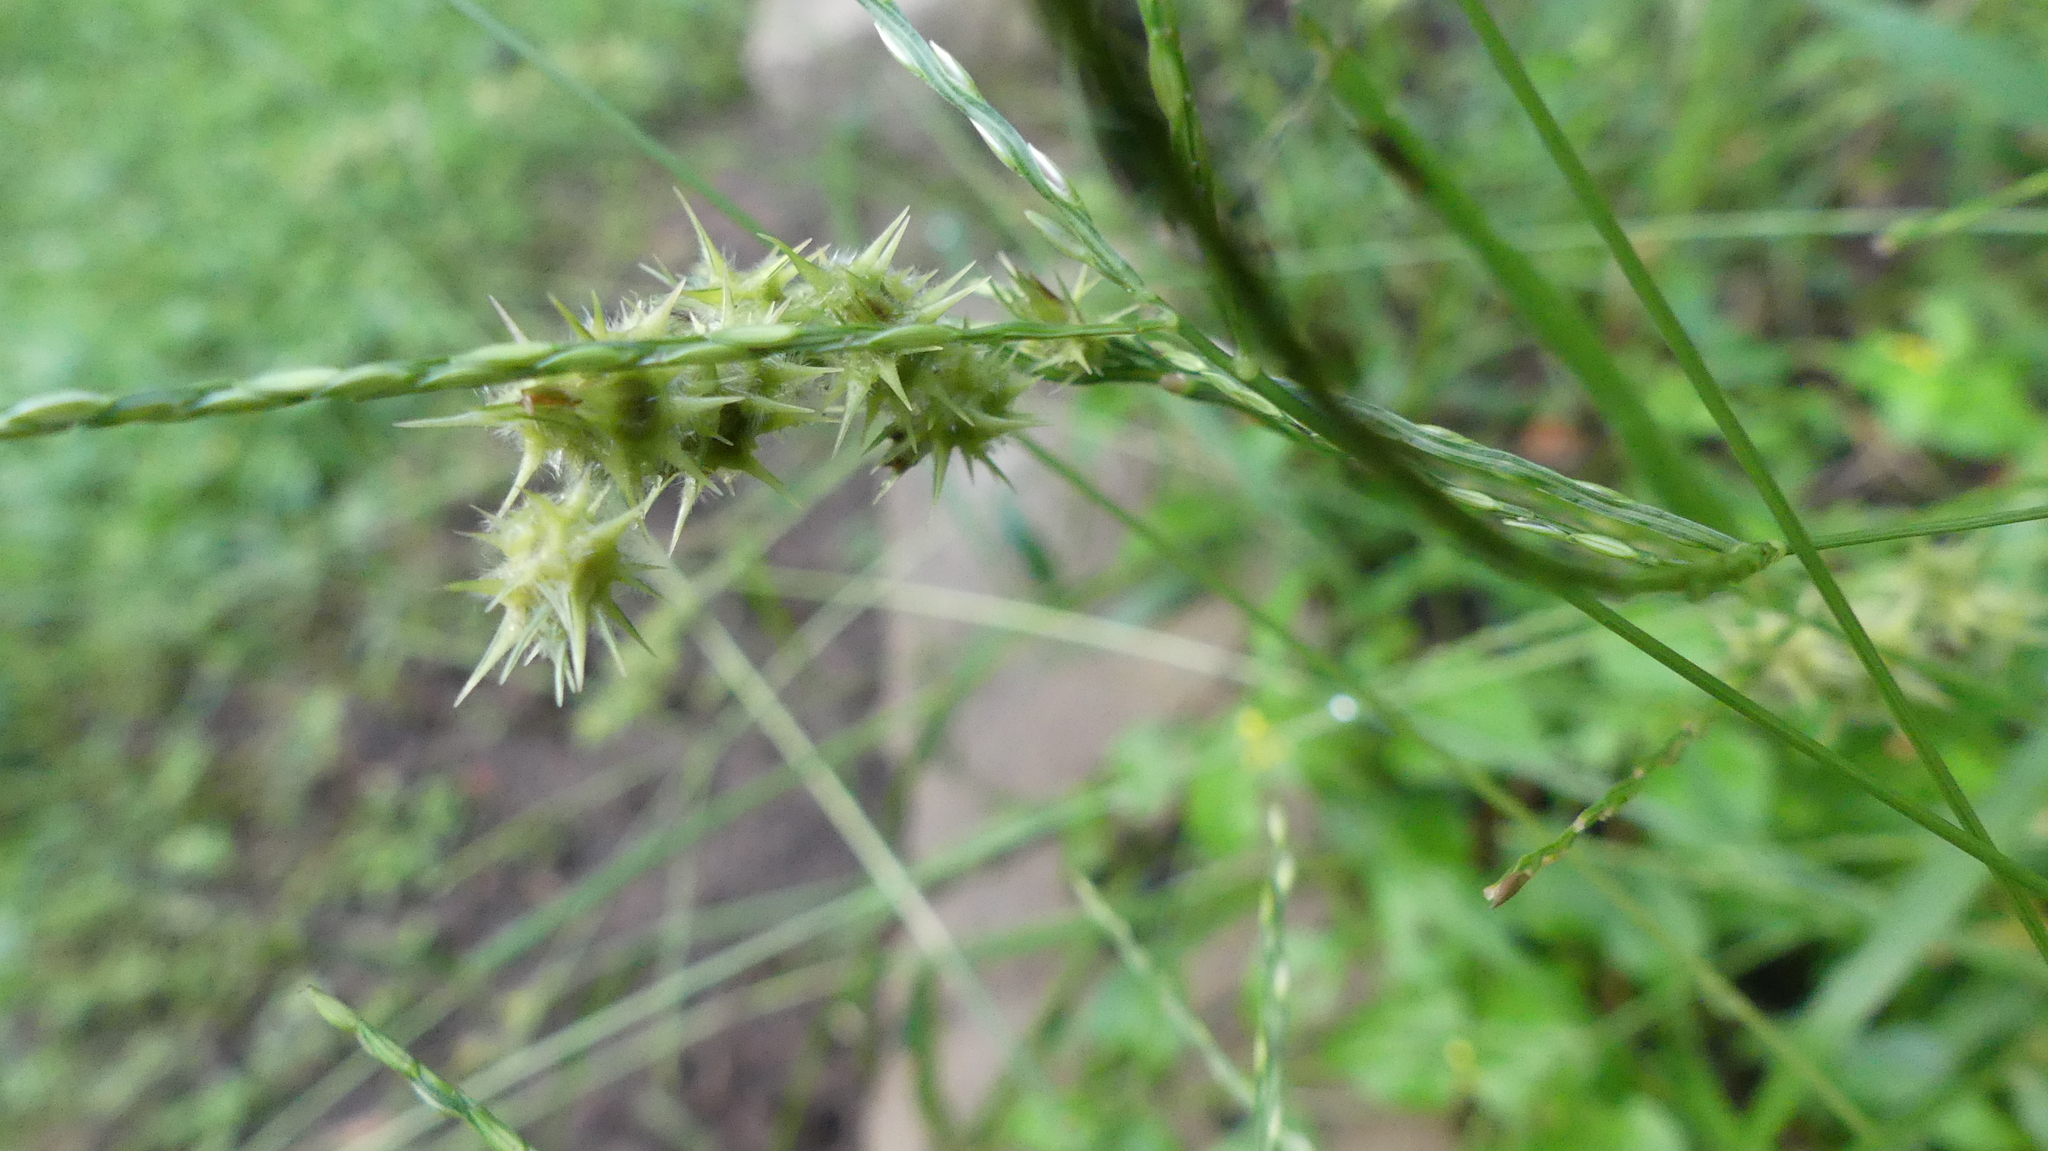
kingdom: Plantae
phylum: Tracheophyta
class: Liliopsida
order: Poales
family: Poaceae
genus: Cenchrus
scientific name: Cenchrus spinifex
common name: Coast sandbur
